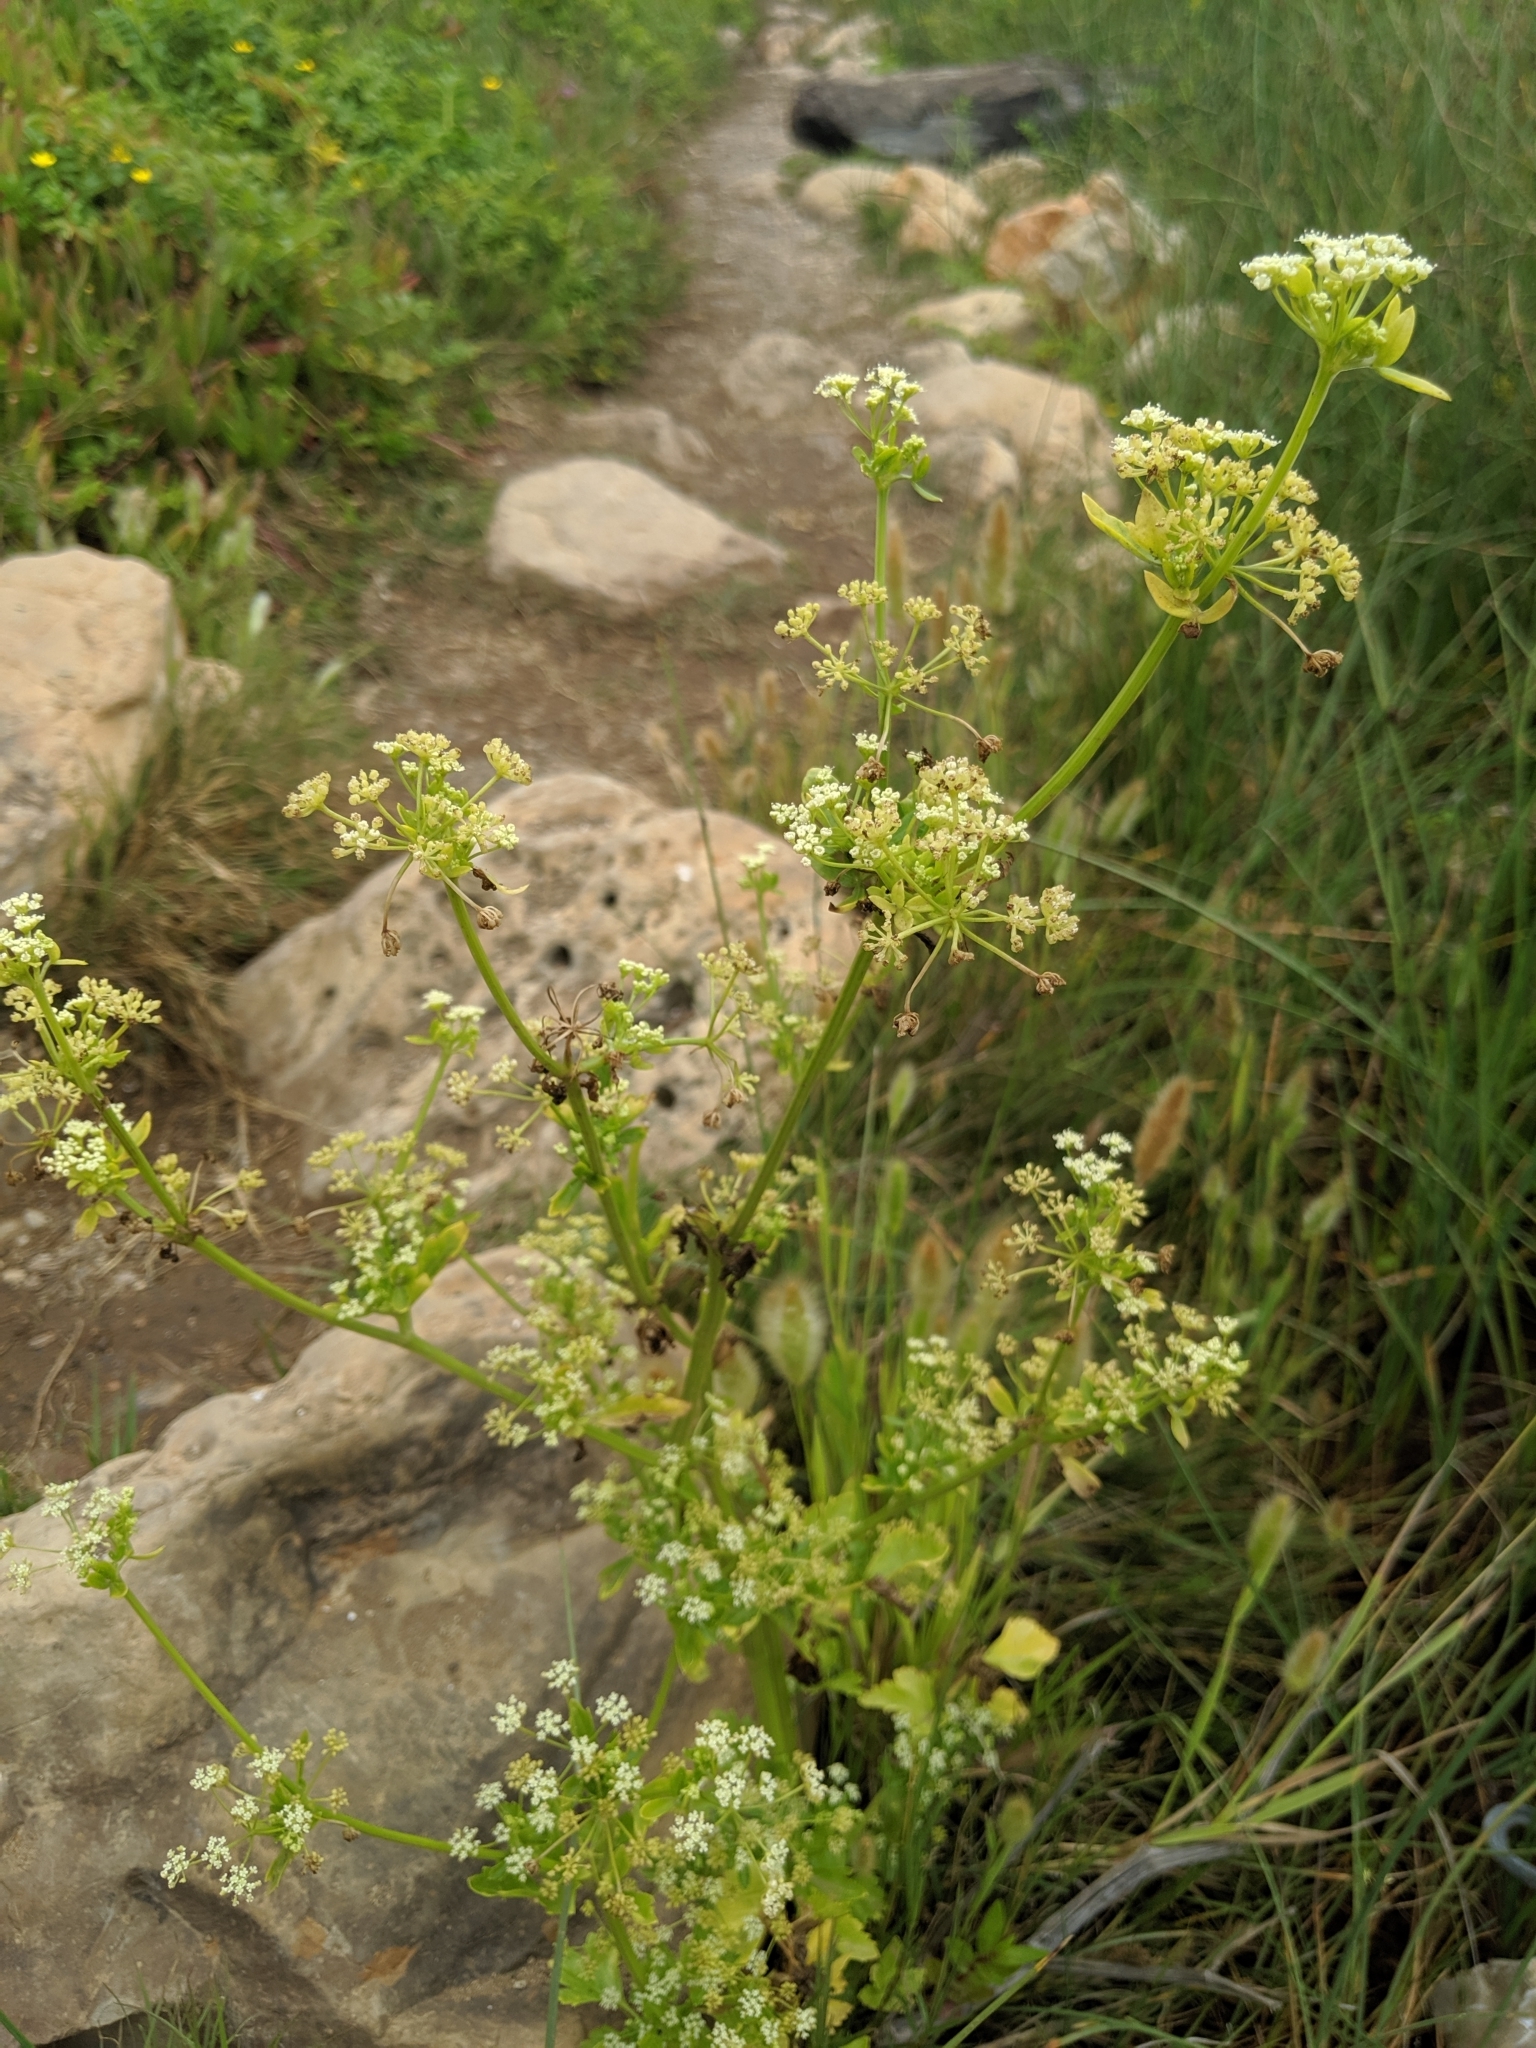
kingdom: Plantae
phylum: Tracheophyta
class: Magnoliopsida
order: Apiales
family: Apiaceae
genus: Apium
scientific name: Apium graveolens
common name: Wild celery
